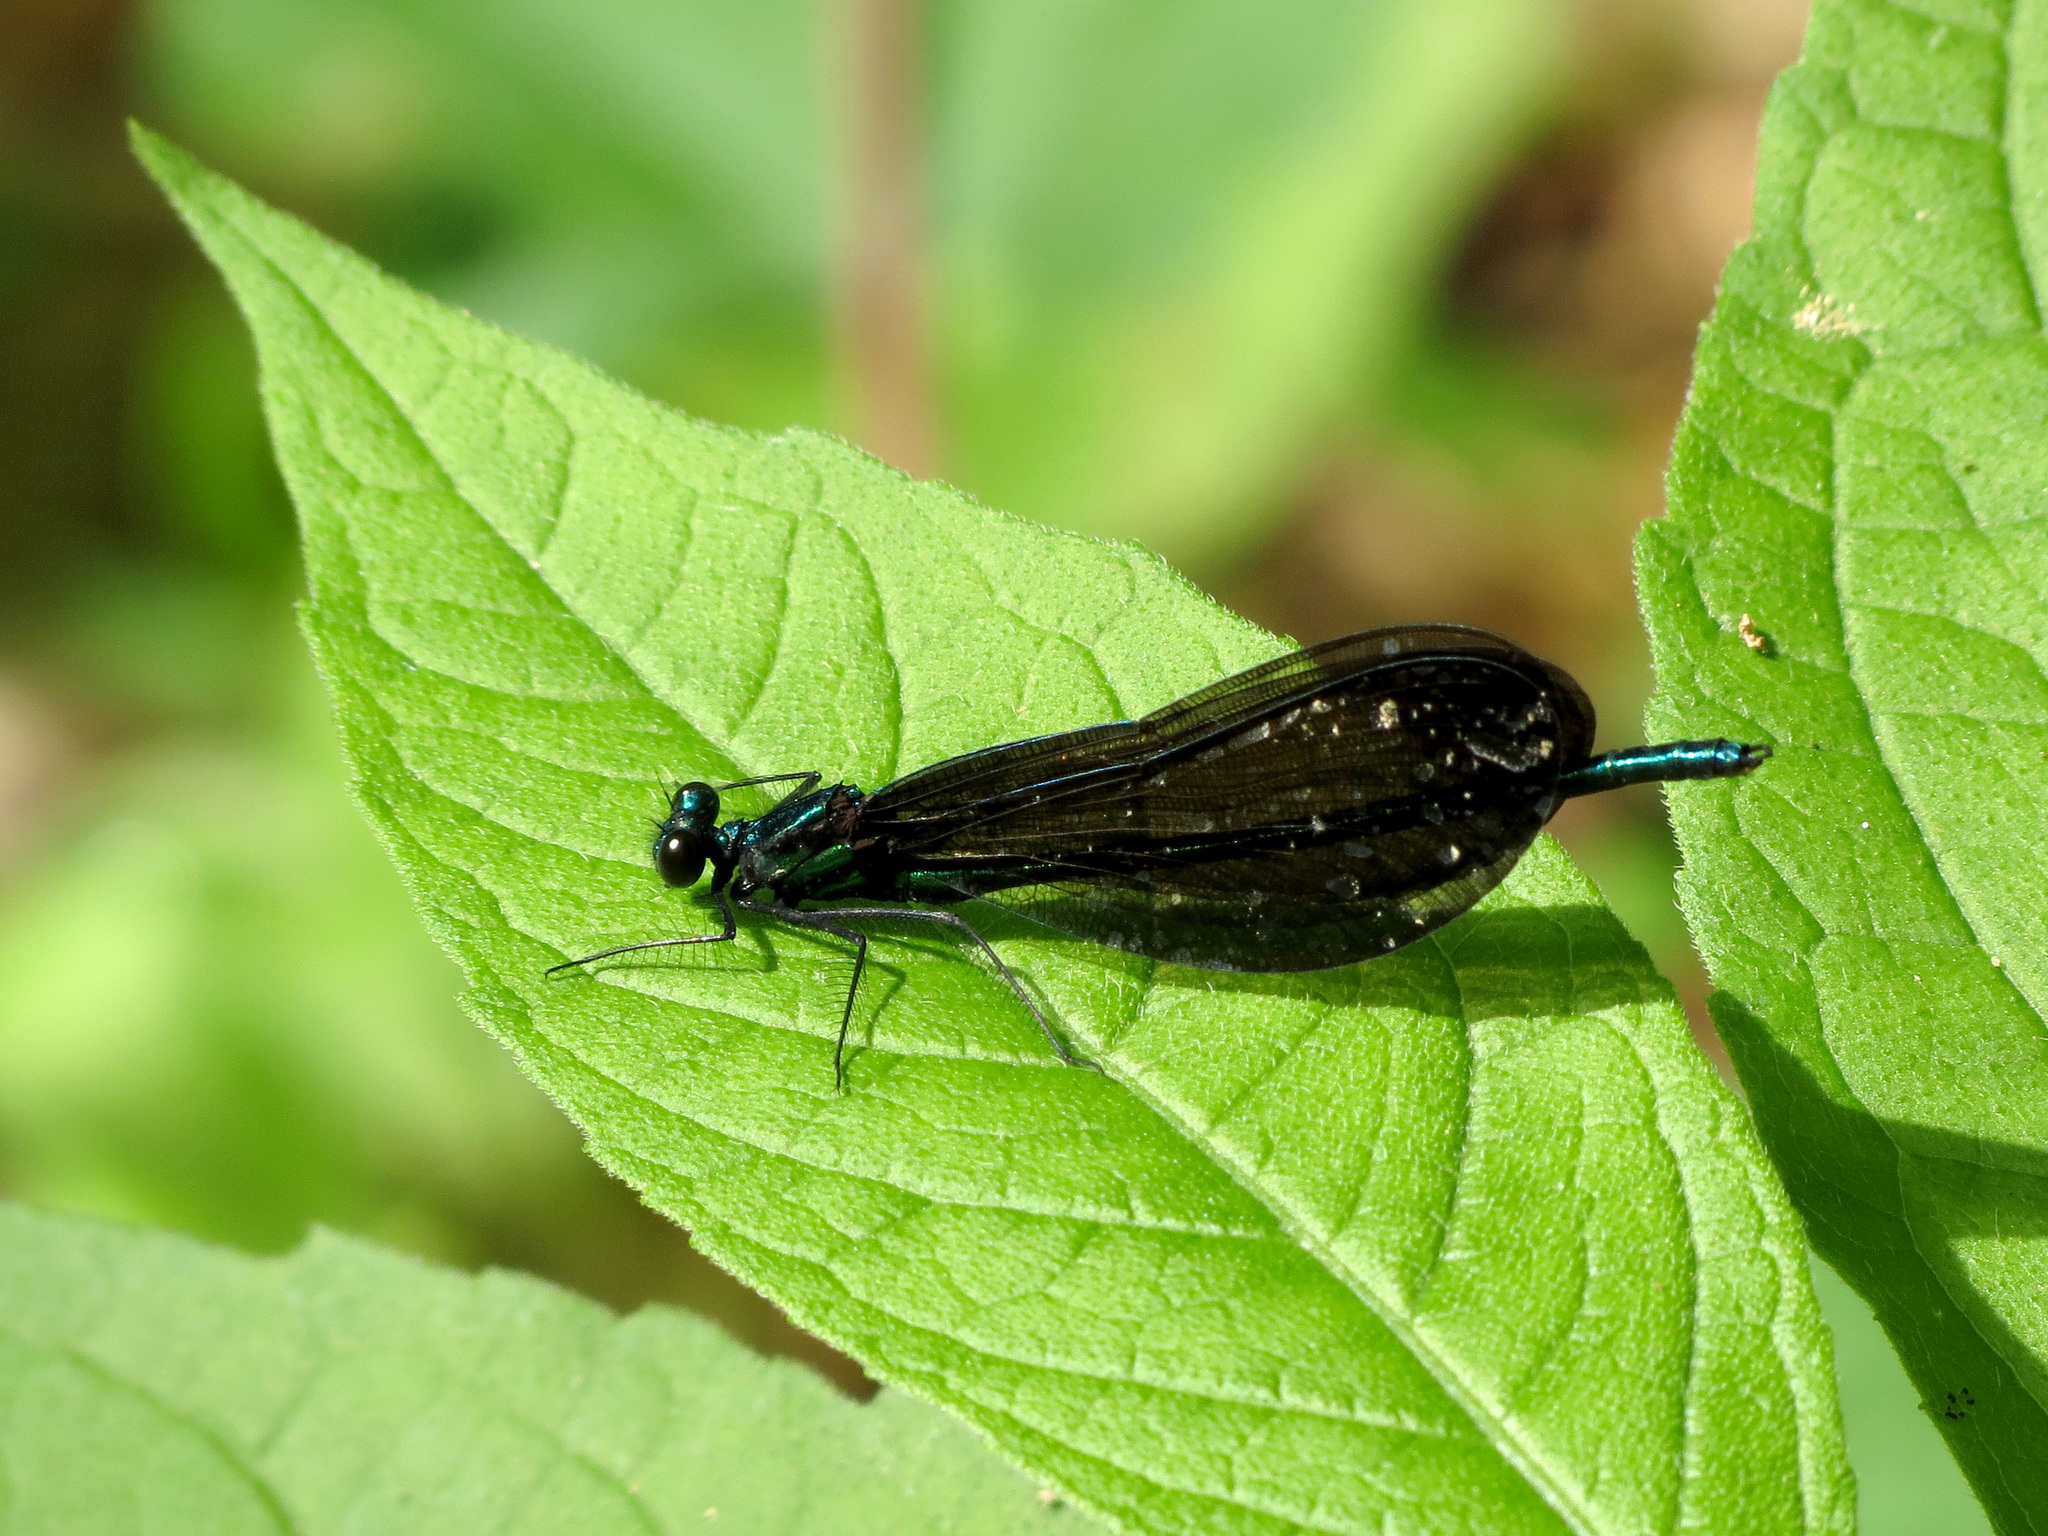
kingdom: Animalia
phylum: Arthropoda
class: Insecta
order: Odonata
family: Calopterygidae
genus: Calopteryx
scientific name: Calopteryx maculata
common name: Ebony jewelwing
